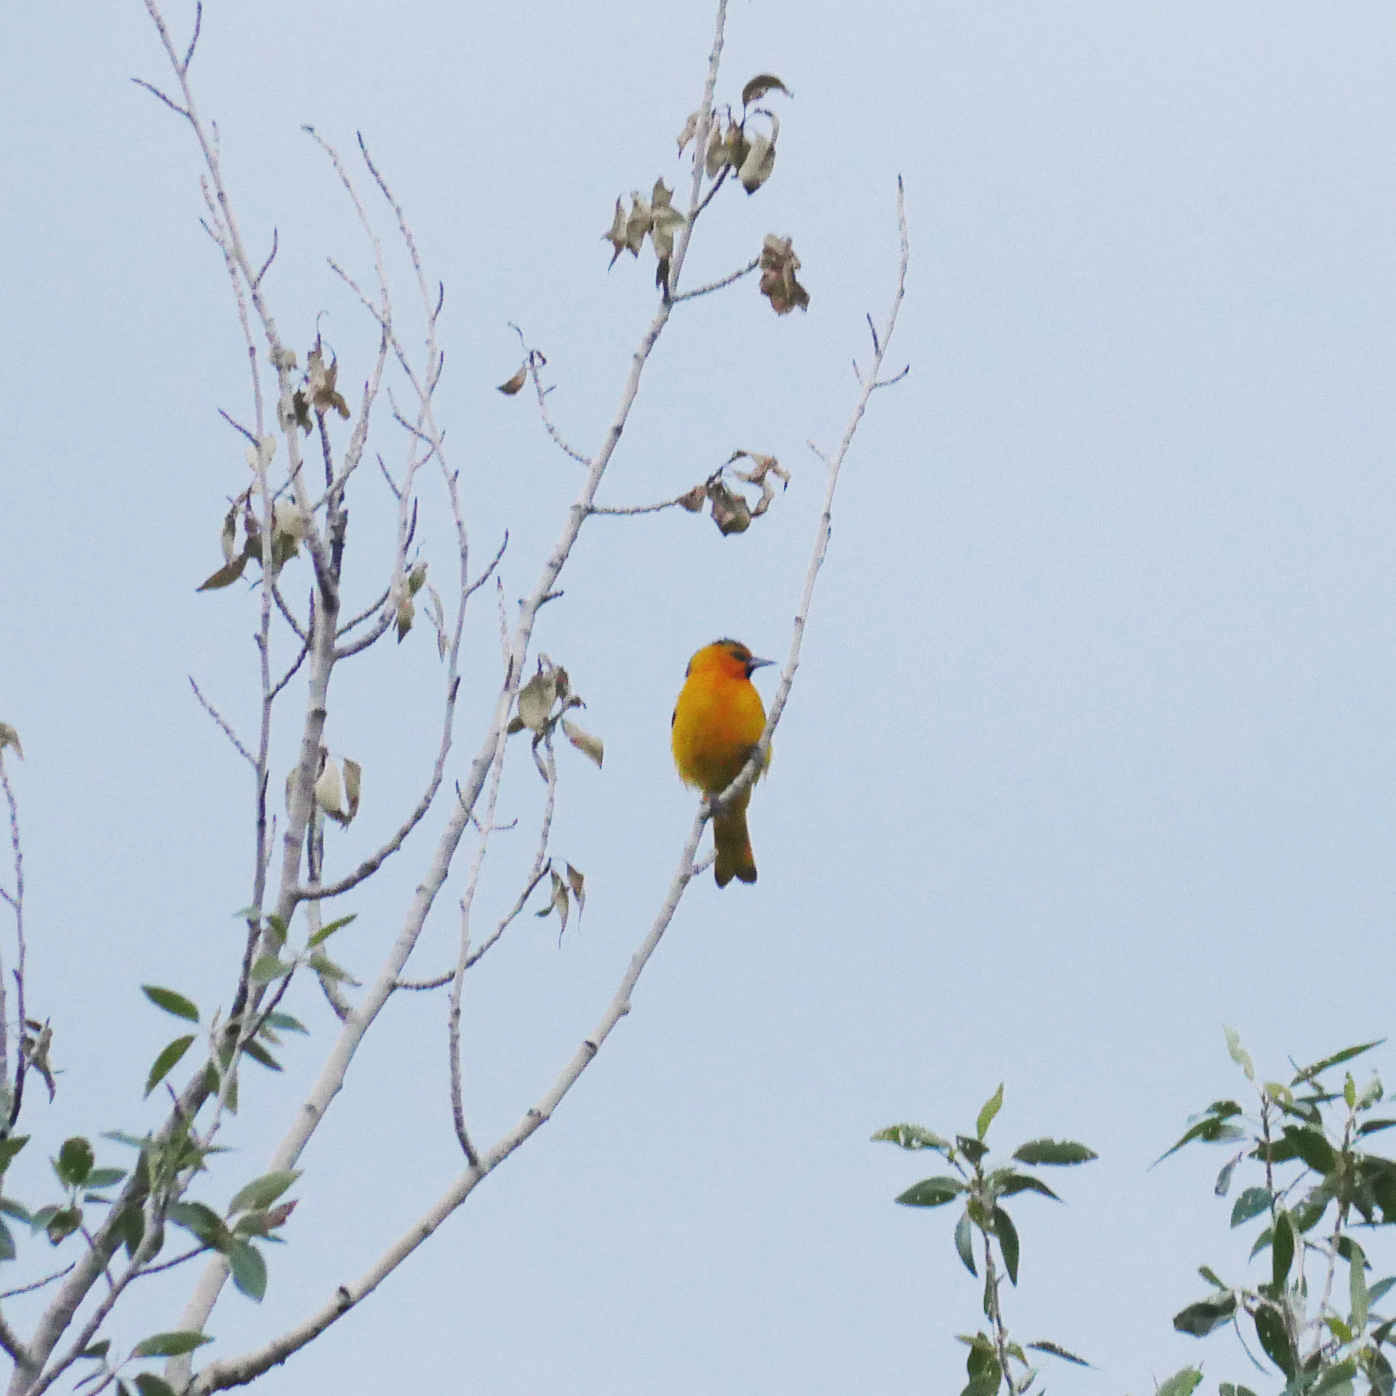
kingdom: Animalia
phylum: Chordata
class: Aves
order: Passeriformes
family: Icteridae
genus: Icterus
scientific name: Icterus bullockii
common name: Bullock's oriole
